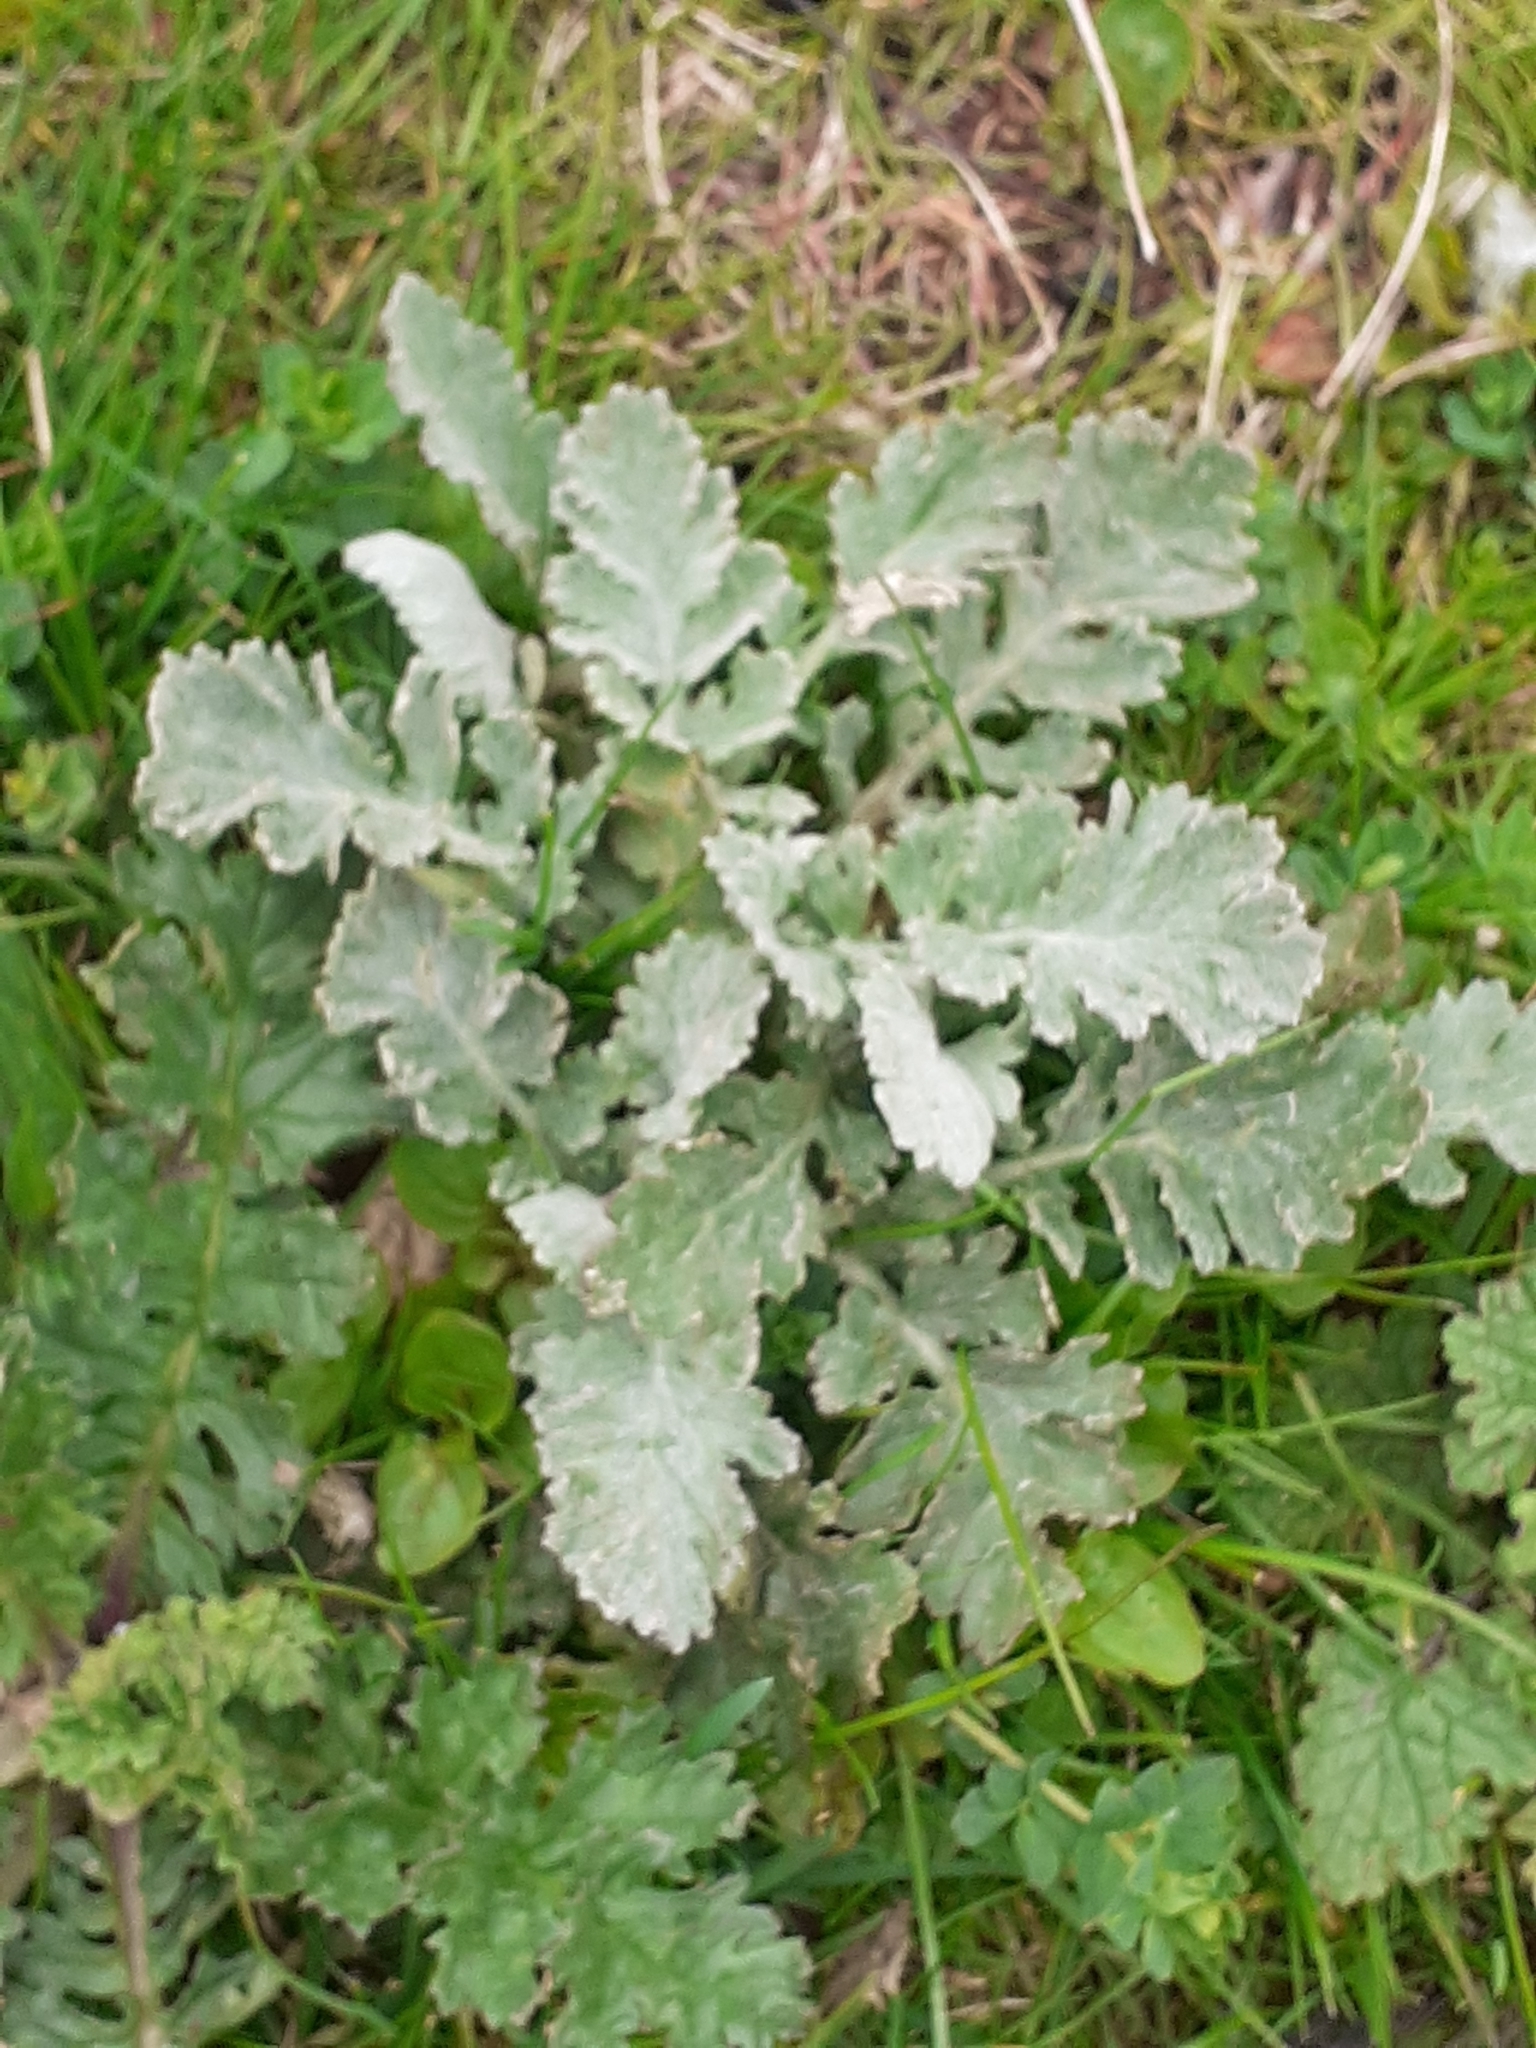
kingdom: Plantae
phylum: Tracheophyta
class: Magnoliopsida
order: Asterales
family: Asteraceae
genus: Jacobaea
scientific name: Jacobaea maritima
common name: Silver ragwort
